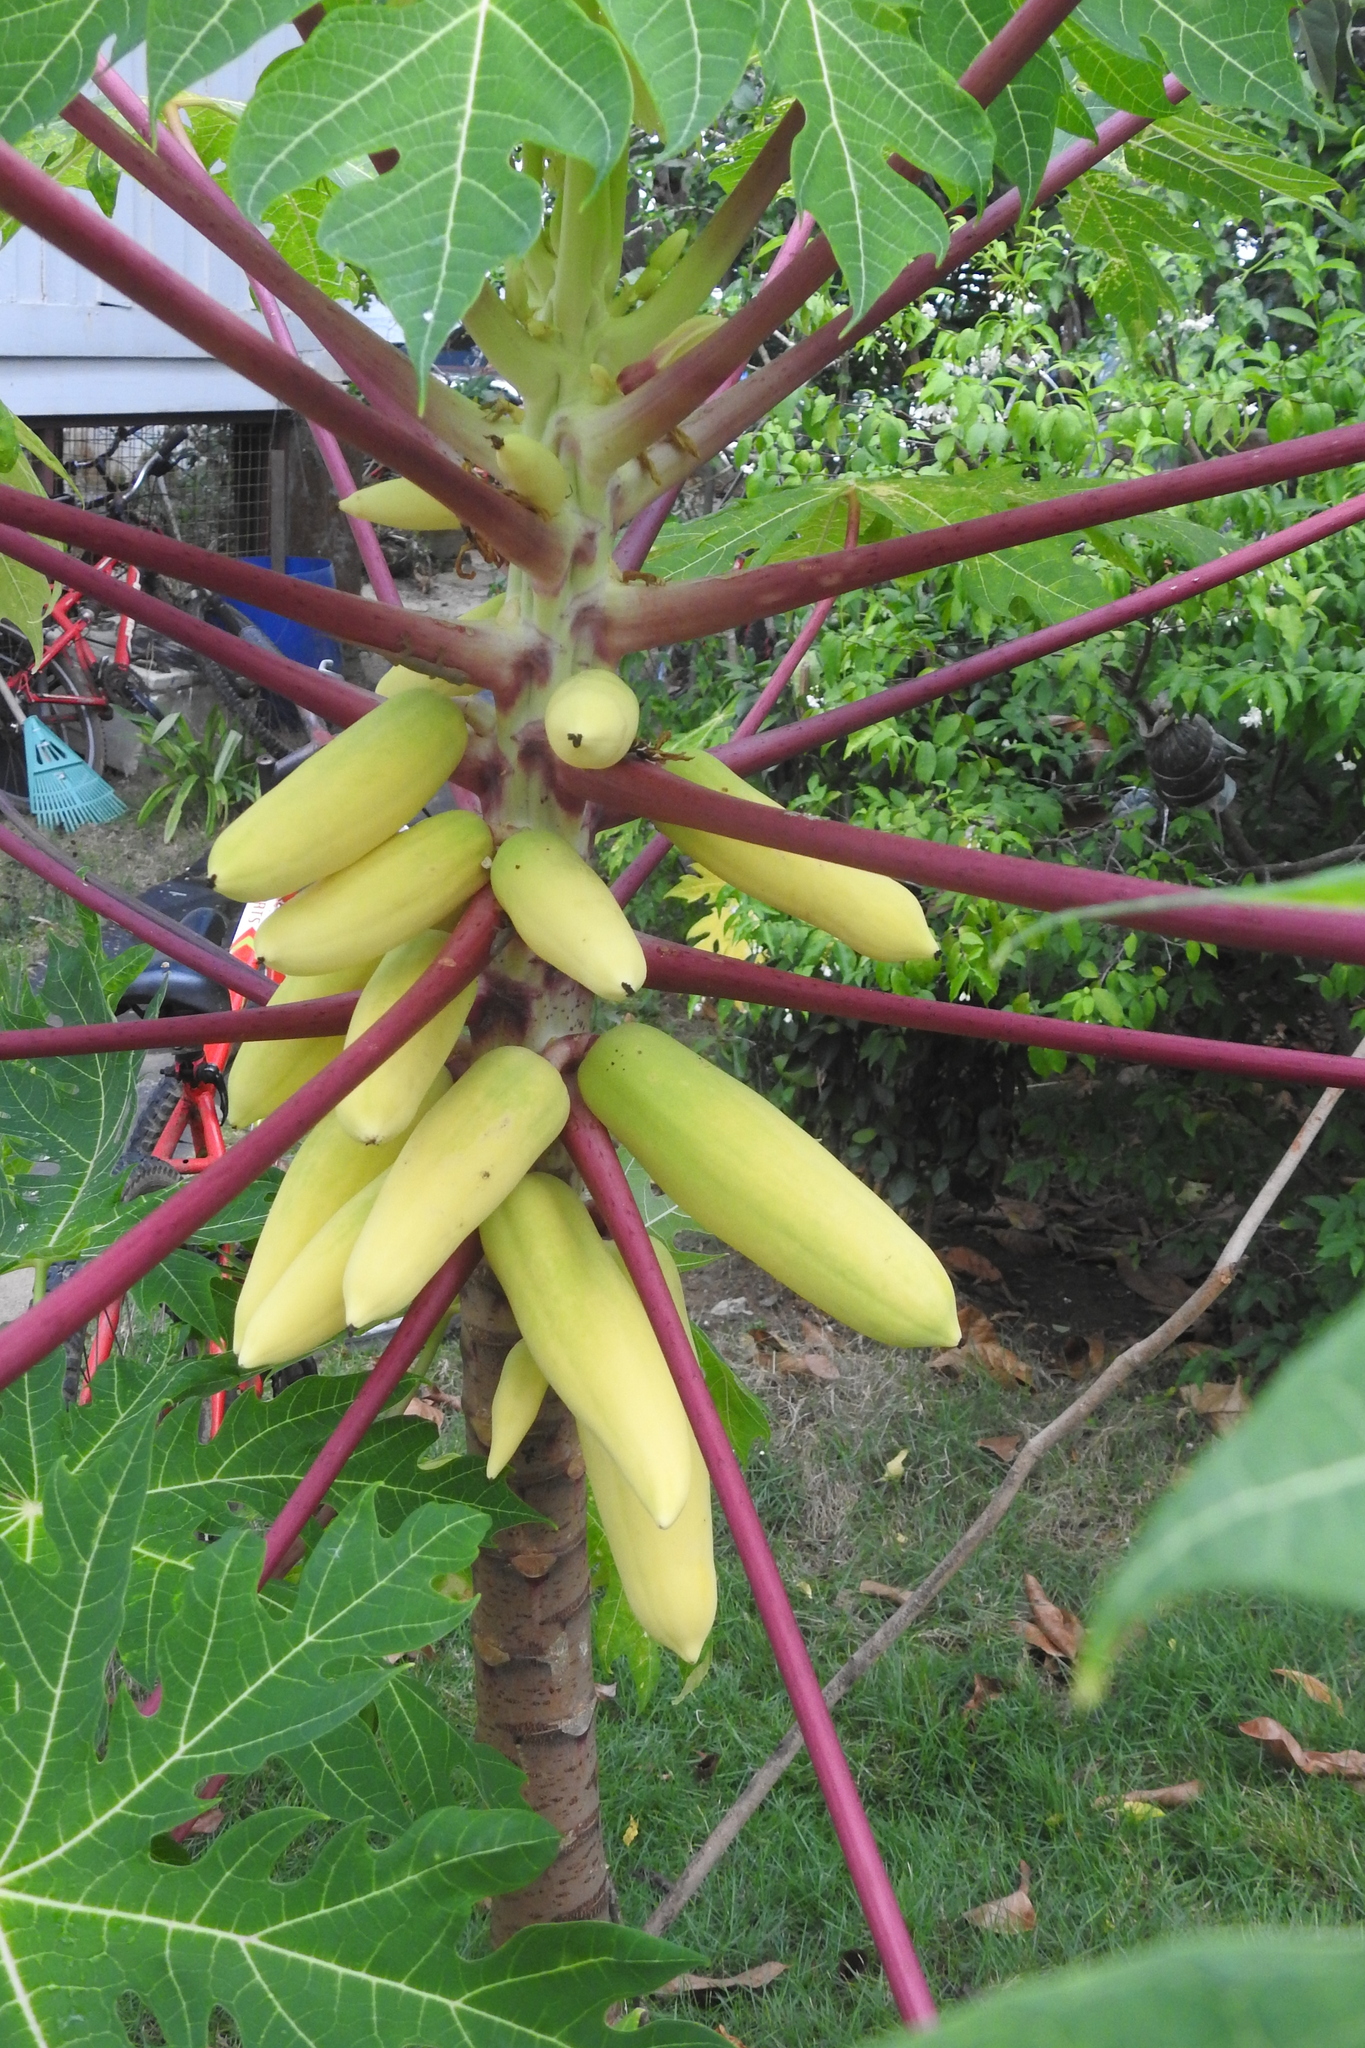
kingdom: Plantae
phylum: Tracheophyta
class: Magnoliopsida
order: Brassicales
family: Caricaceae
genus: Carica
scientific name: Carica papaya
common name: Papaya
